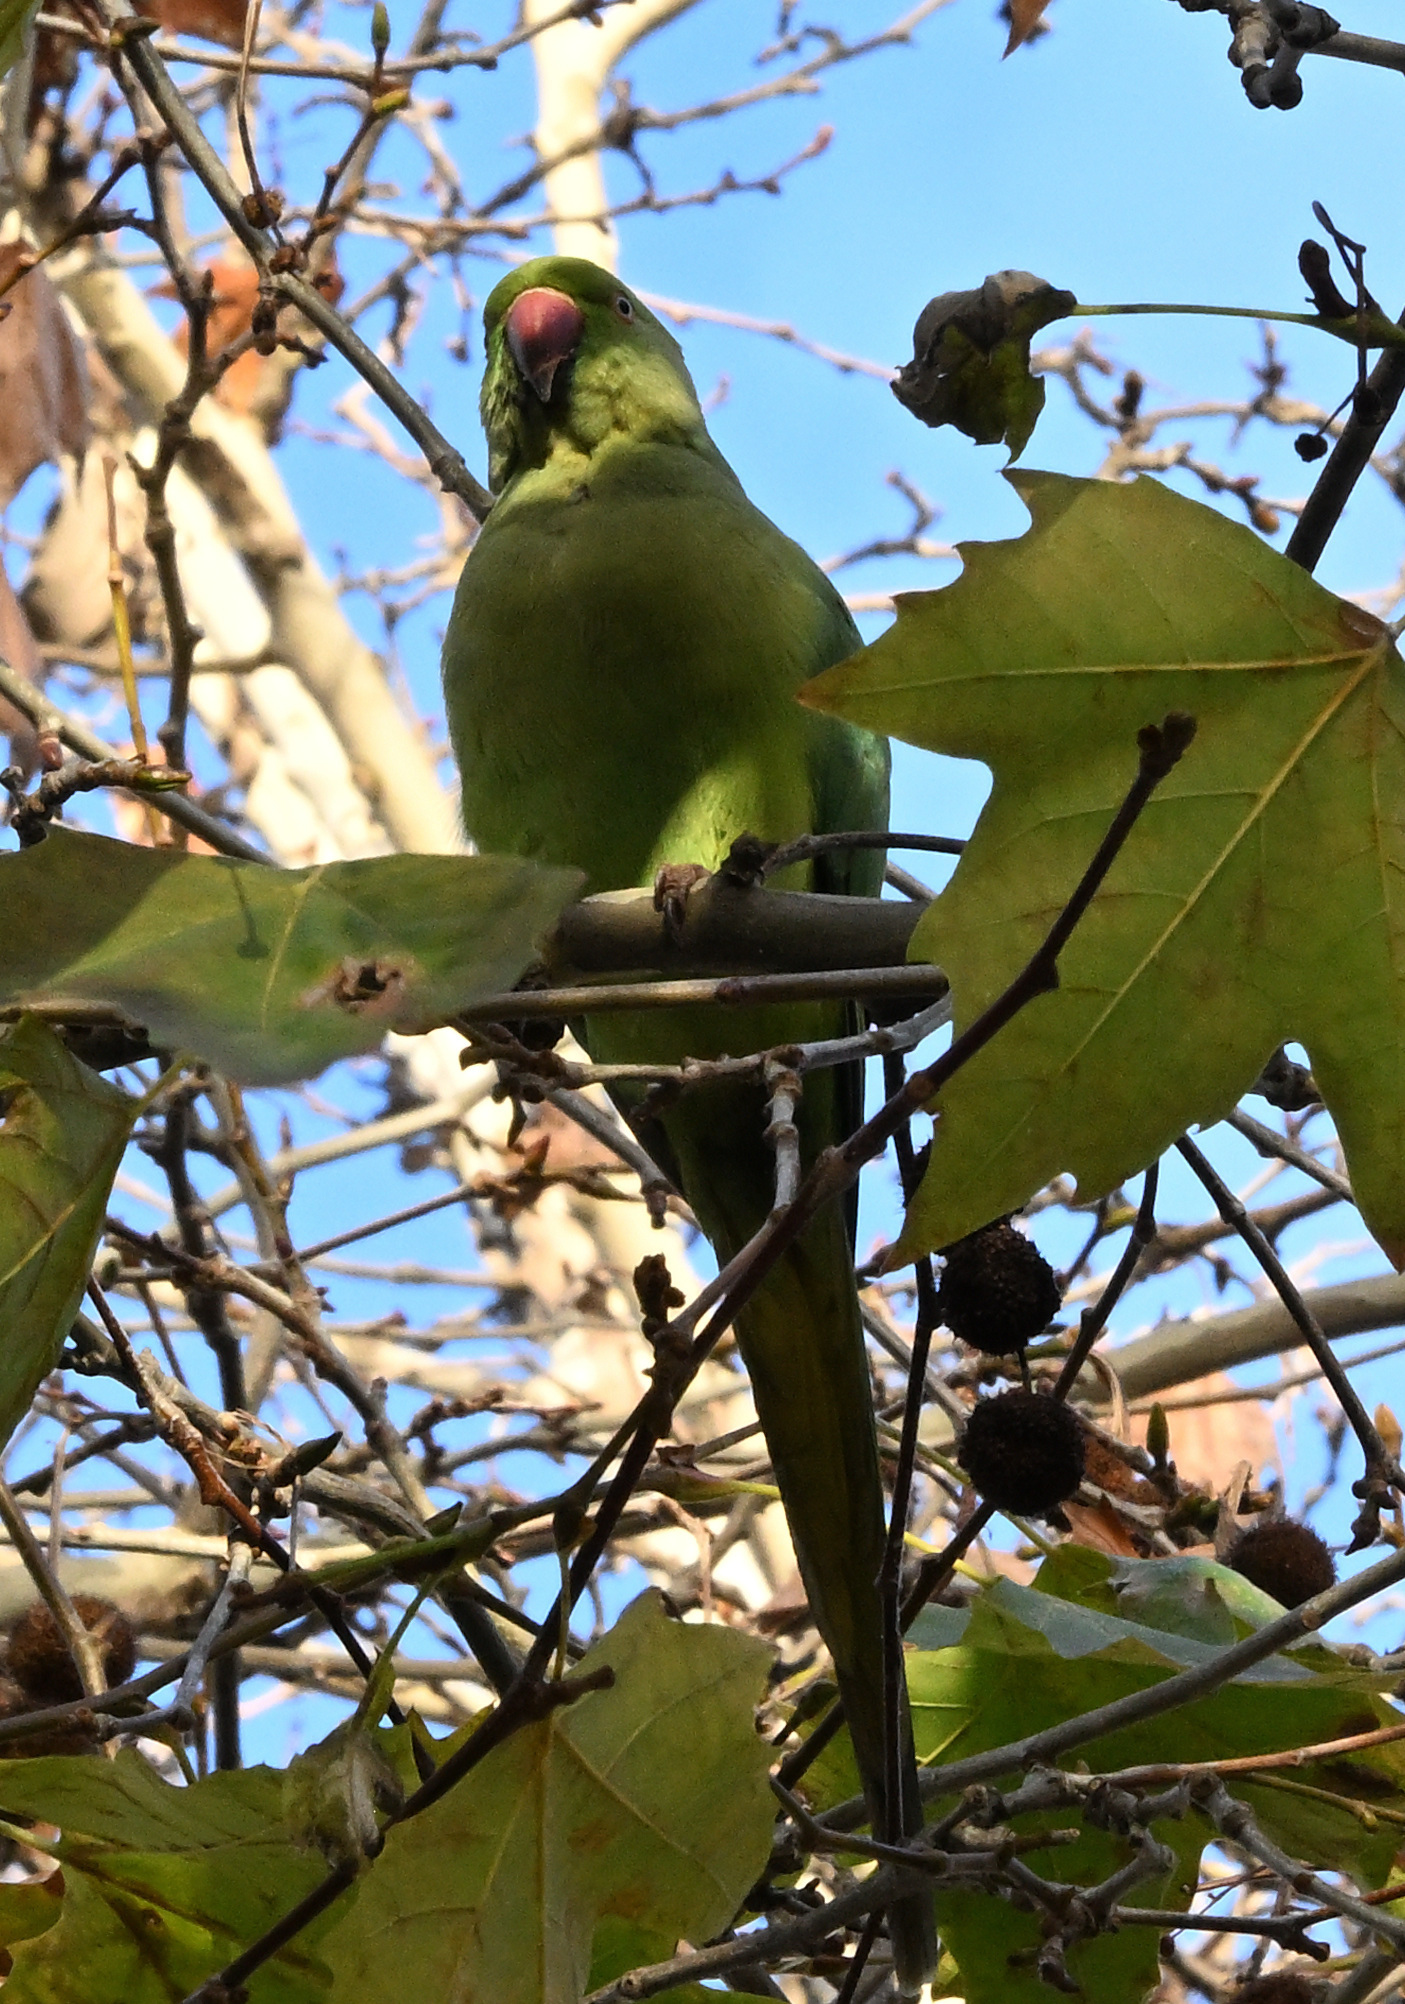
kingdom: Animalia
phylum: Chordata
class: Aves
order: Psittaciformes
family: Psittacidae
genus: Psittacula
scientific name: Psittacula krameri
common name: Rose-ringed parakeet
